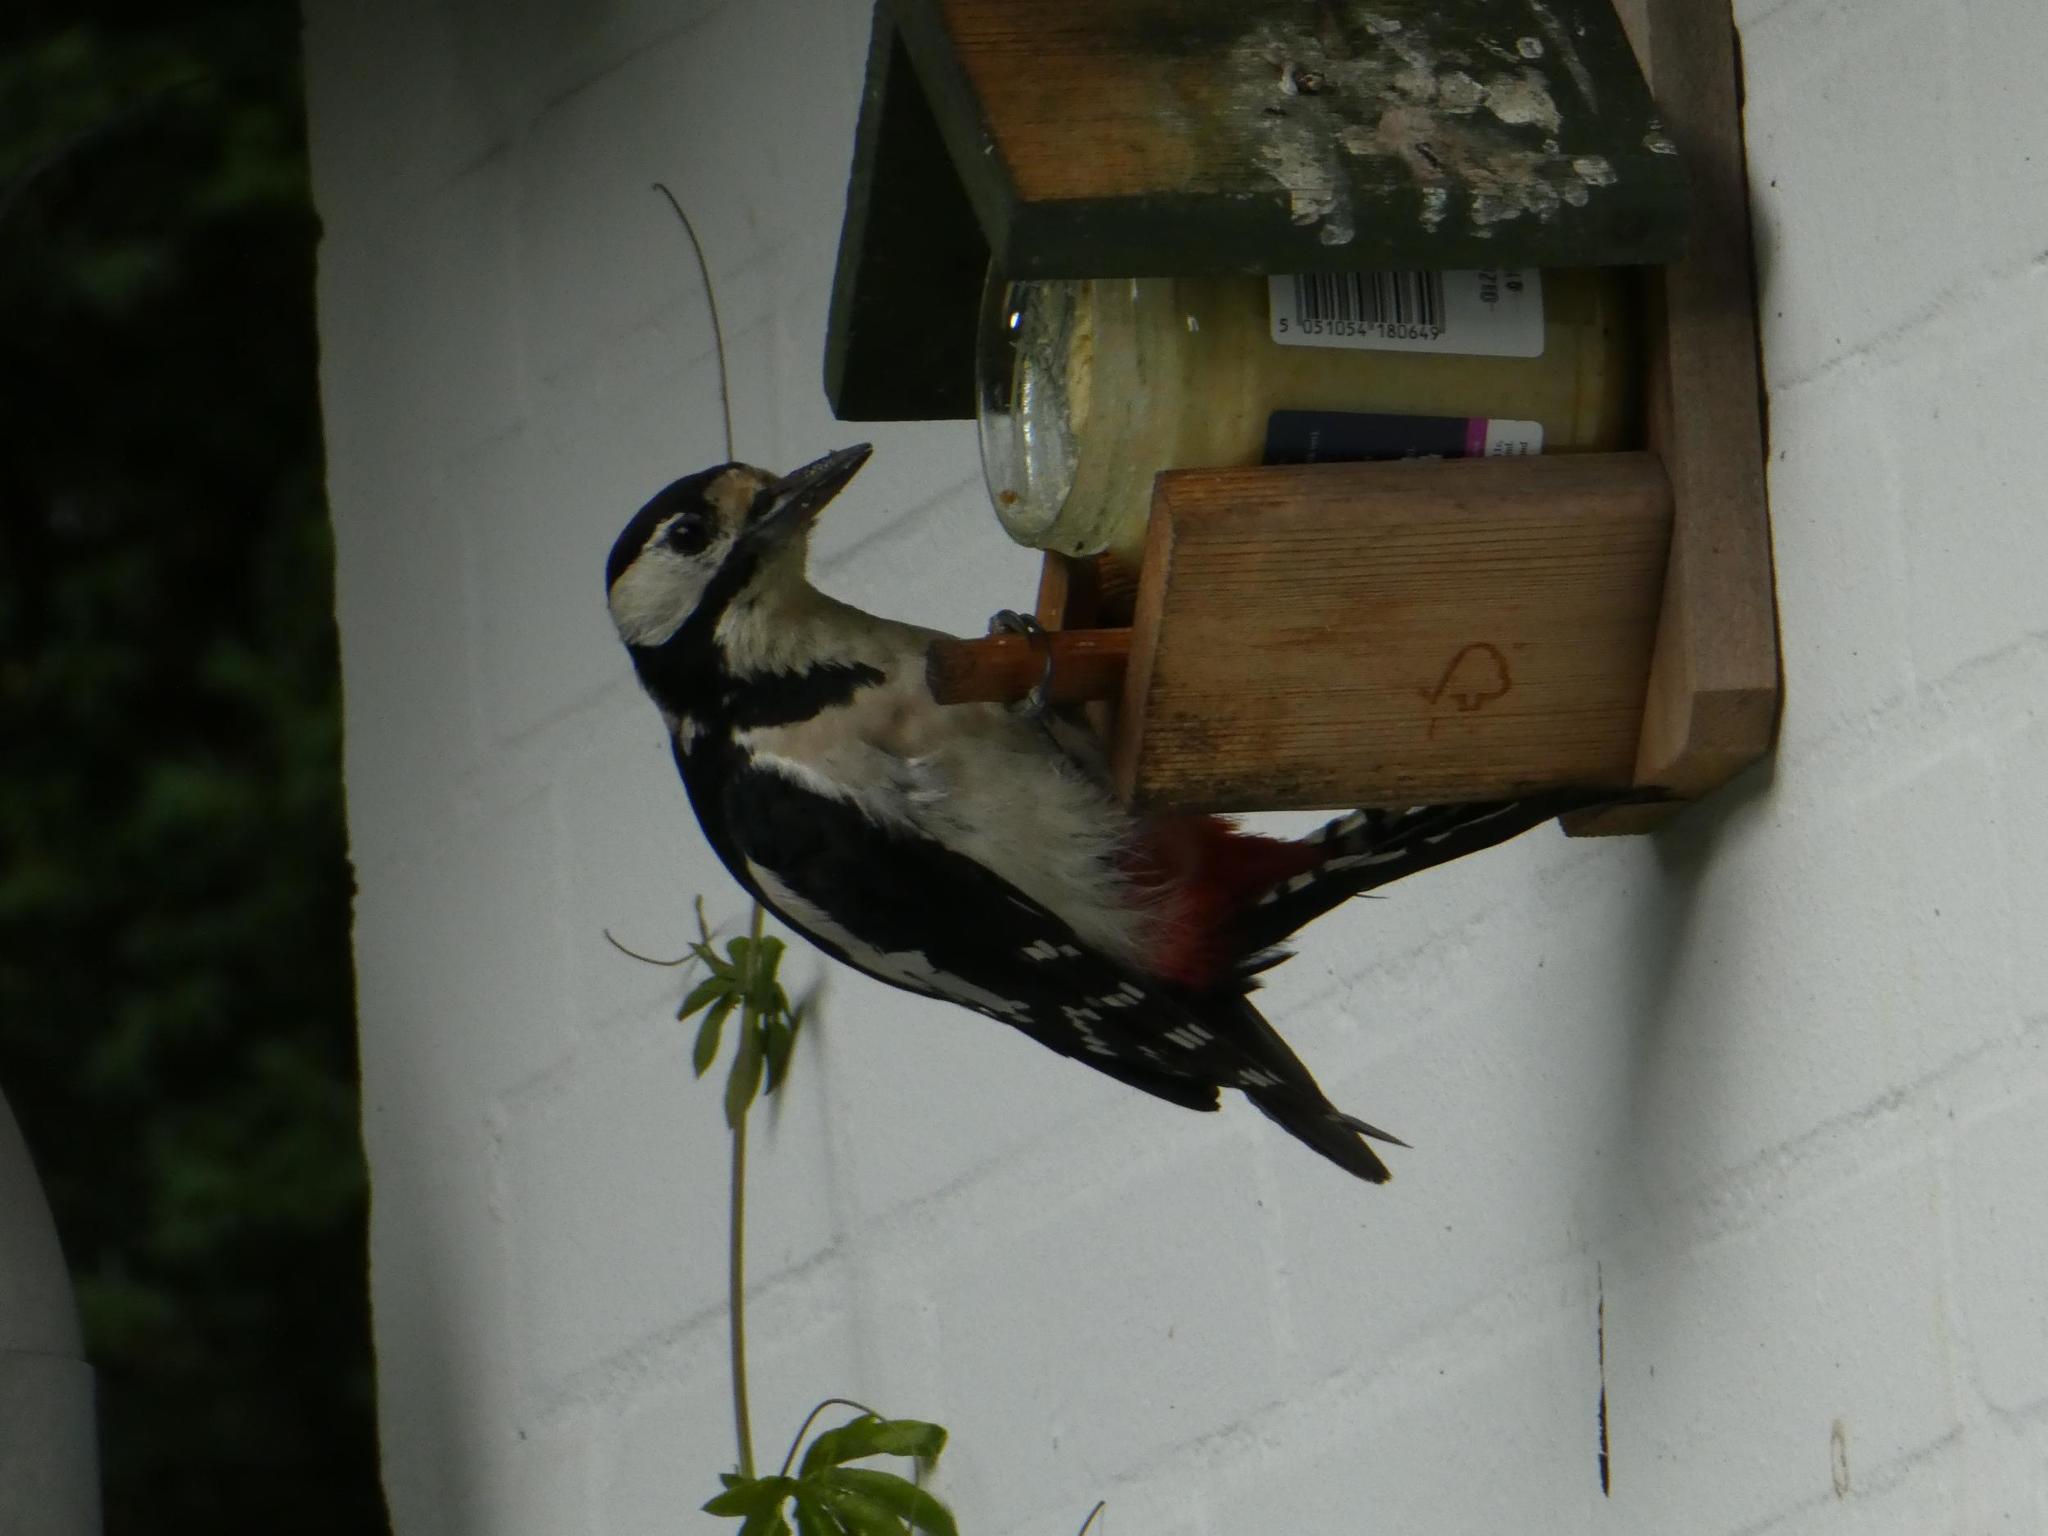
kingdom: Animalia
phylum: Chordata
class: Aves
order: Piciformes
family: Picidae
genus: Dendrocopos
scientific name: Dendrocopos major
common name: Great spotted woodpecker
